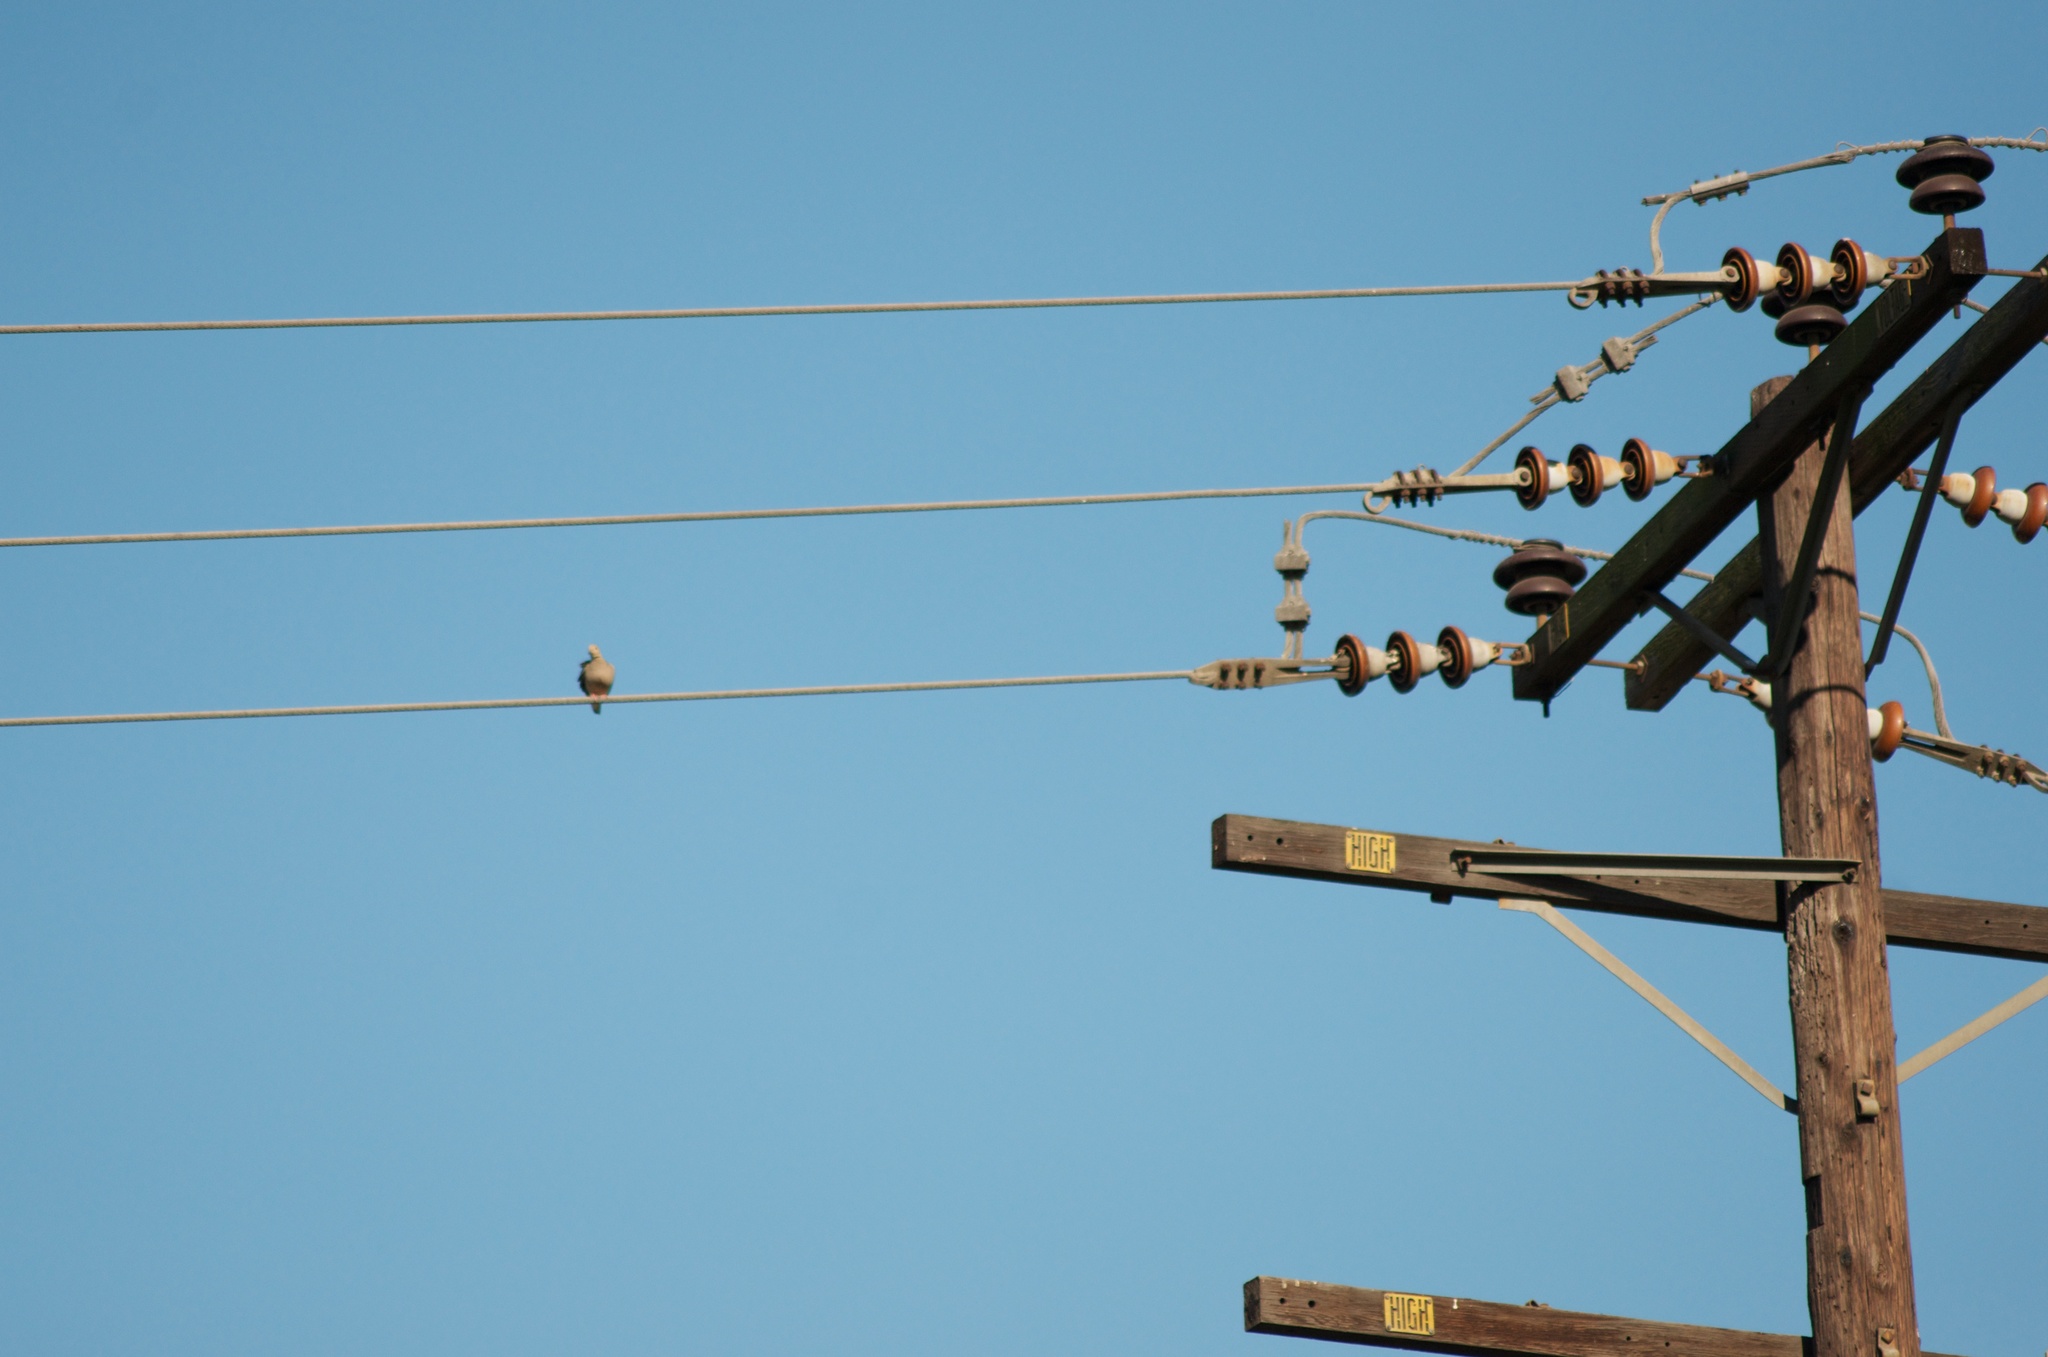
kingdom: Animalia
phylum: Chordata
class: Aves
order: Columbiformes
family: Columbidae
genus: Zenaida
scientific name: Zenaida macroura
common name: Mourning dove
